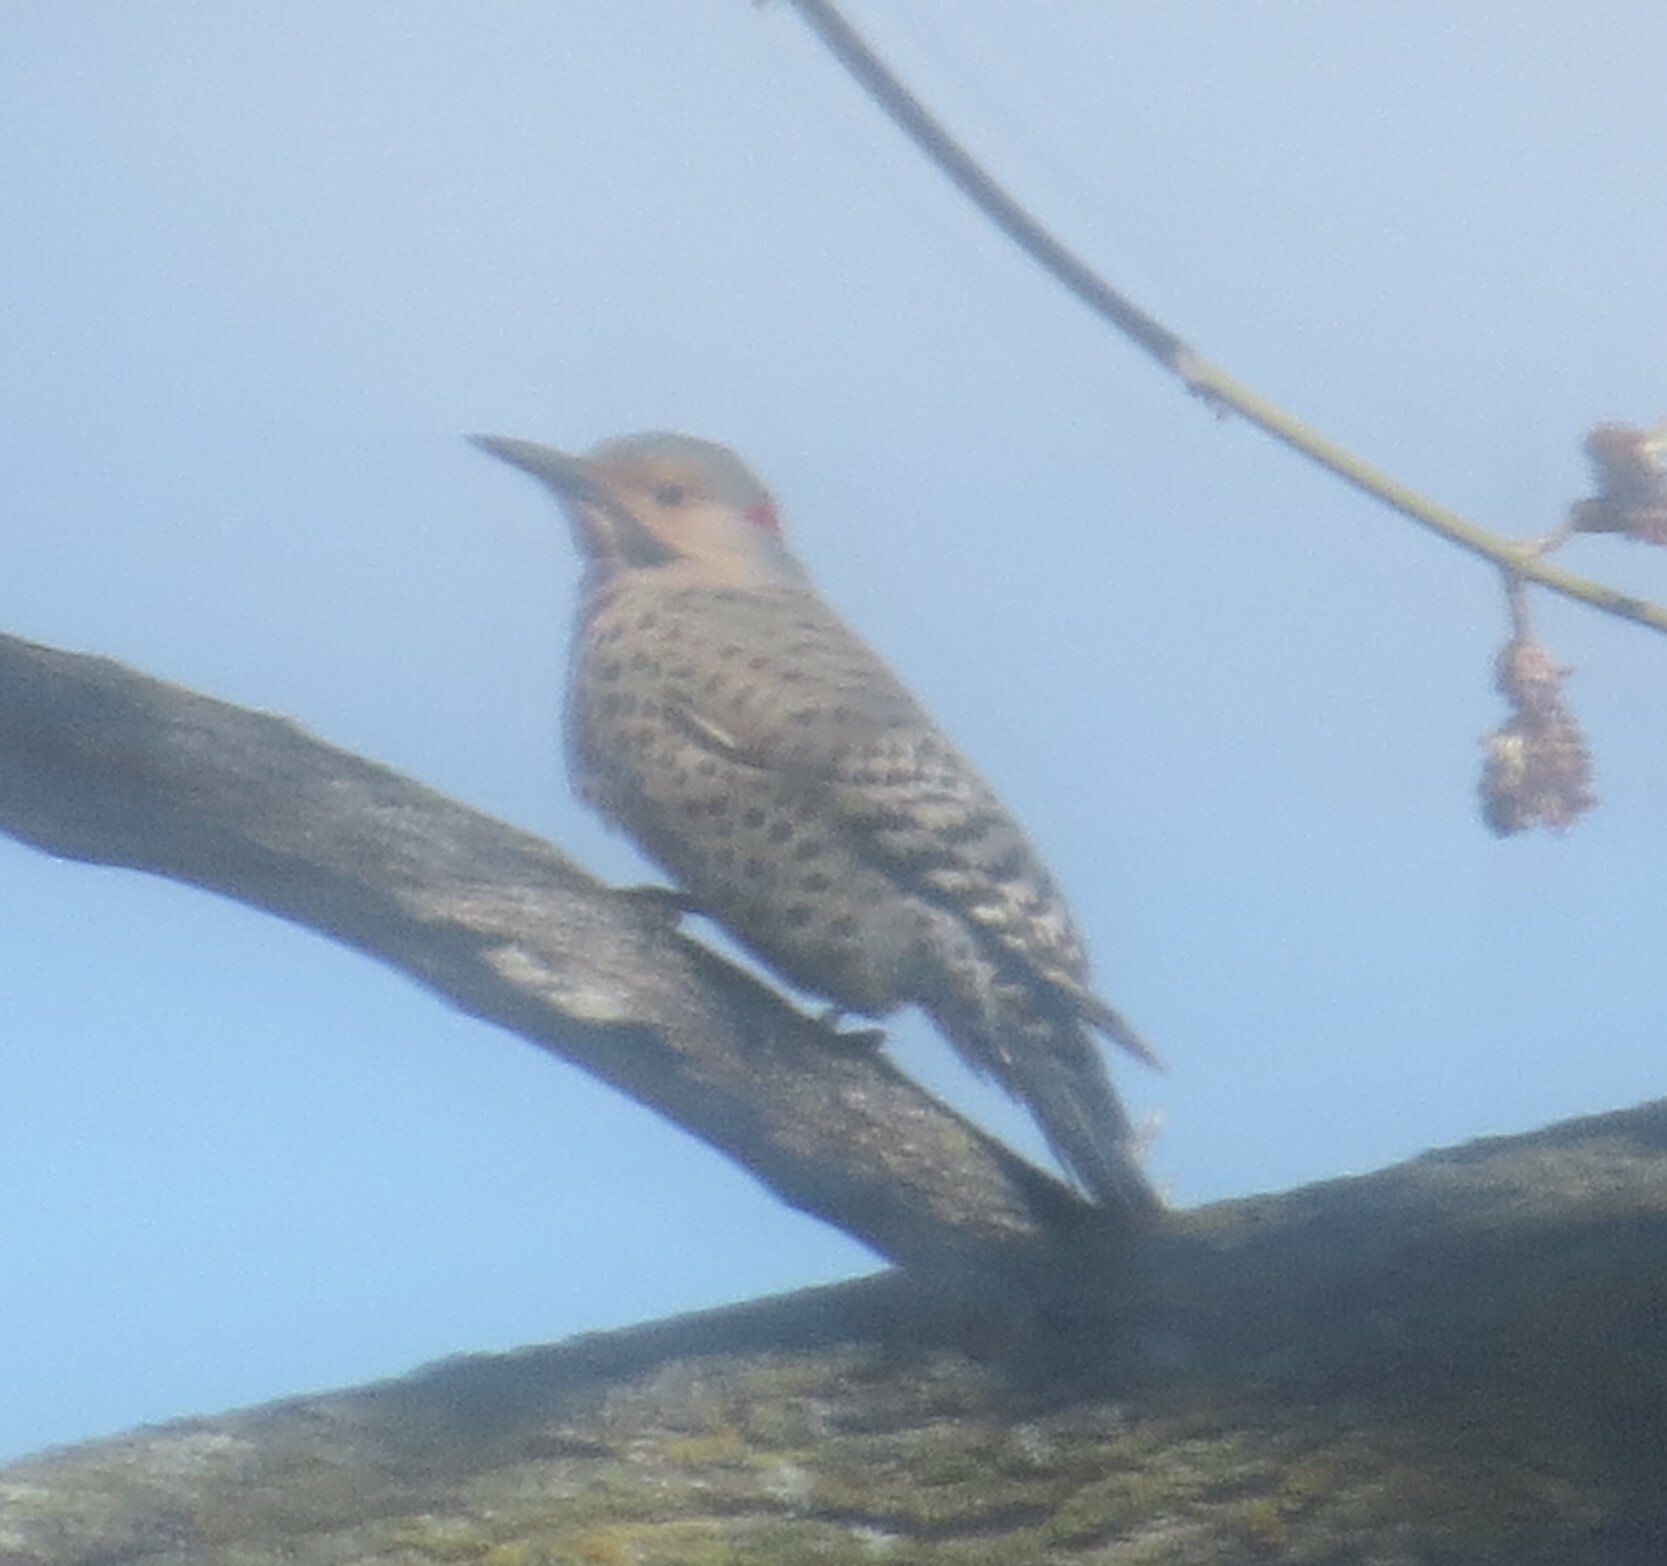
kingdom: Animalia
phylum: Chordata
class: Aves
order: Piciformes
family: Picidae
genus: Colaptes
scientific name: Colaptes auratus
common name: Northern flicker
